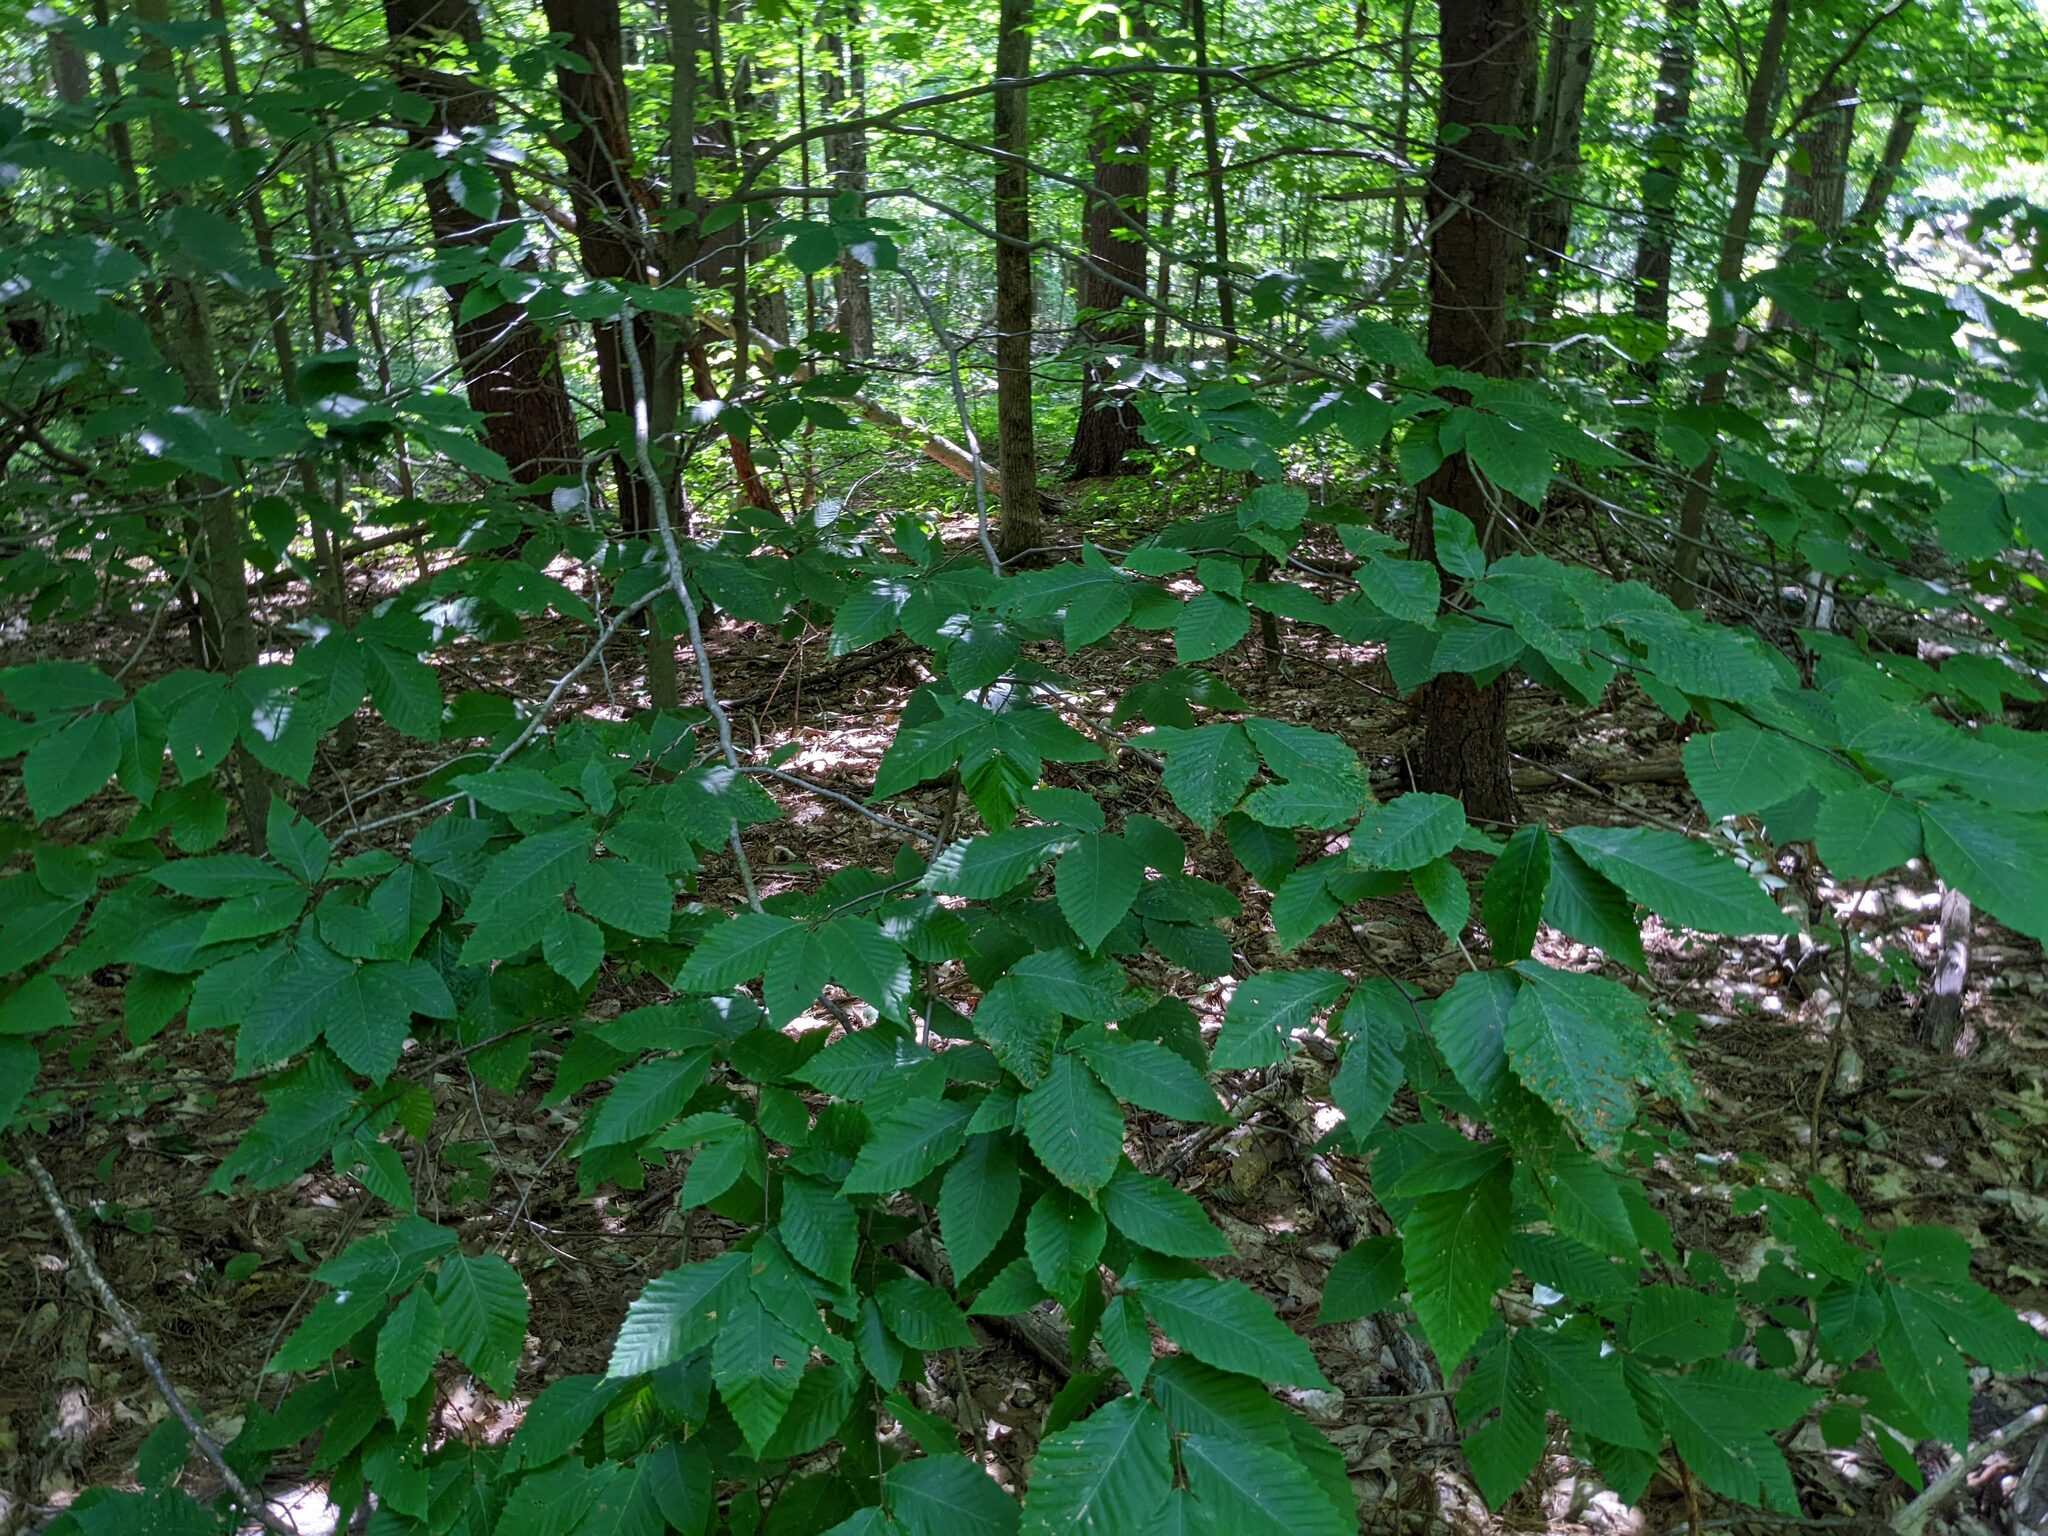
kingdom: Plantae
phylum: Tracheophyta
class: Magnoliopsida
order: Fagales
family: Fagaceae
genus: Fagus
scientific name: Fagus grandifolia
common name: American beech
